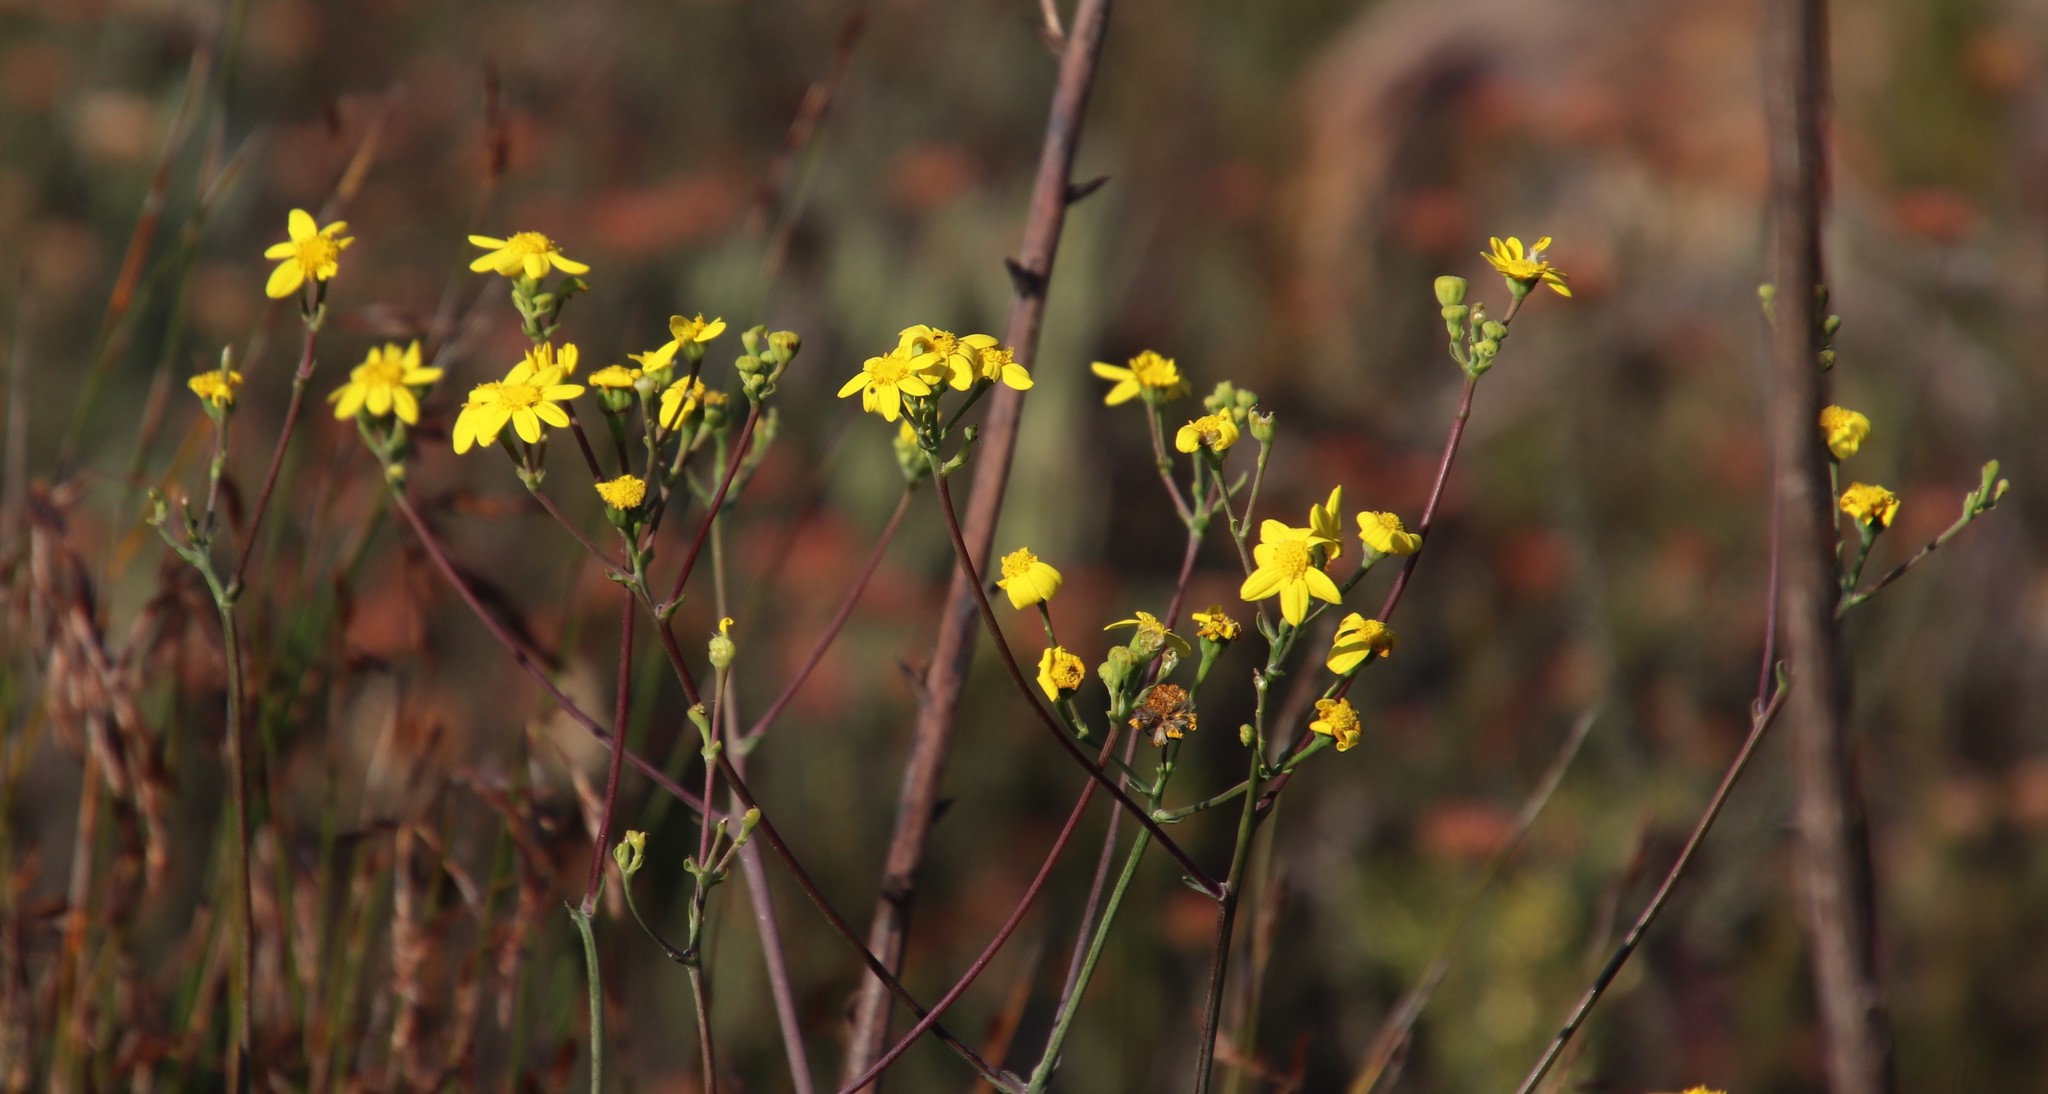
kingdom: Plantae
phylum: Tracheophyta
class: Magnoliopsida
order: Asterales
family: Asteraceae
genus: Othonna
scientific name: Othonna quinquedentata
